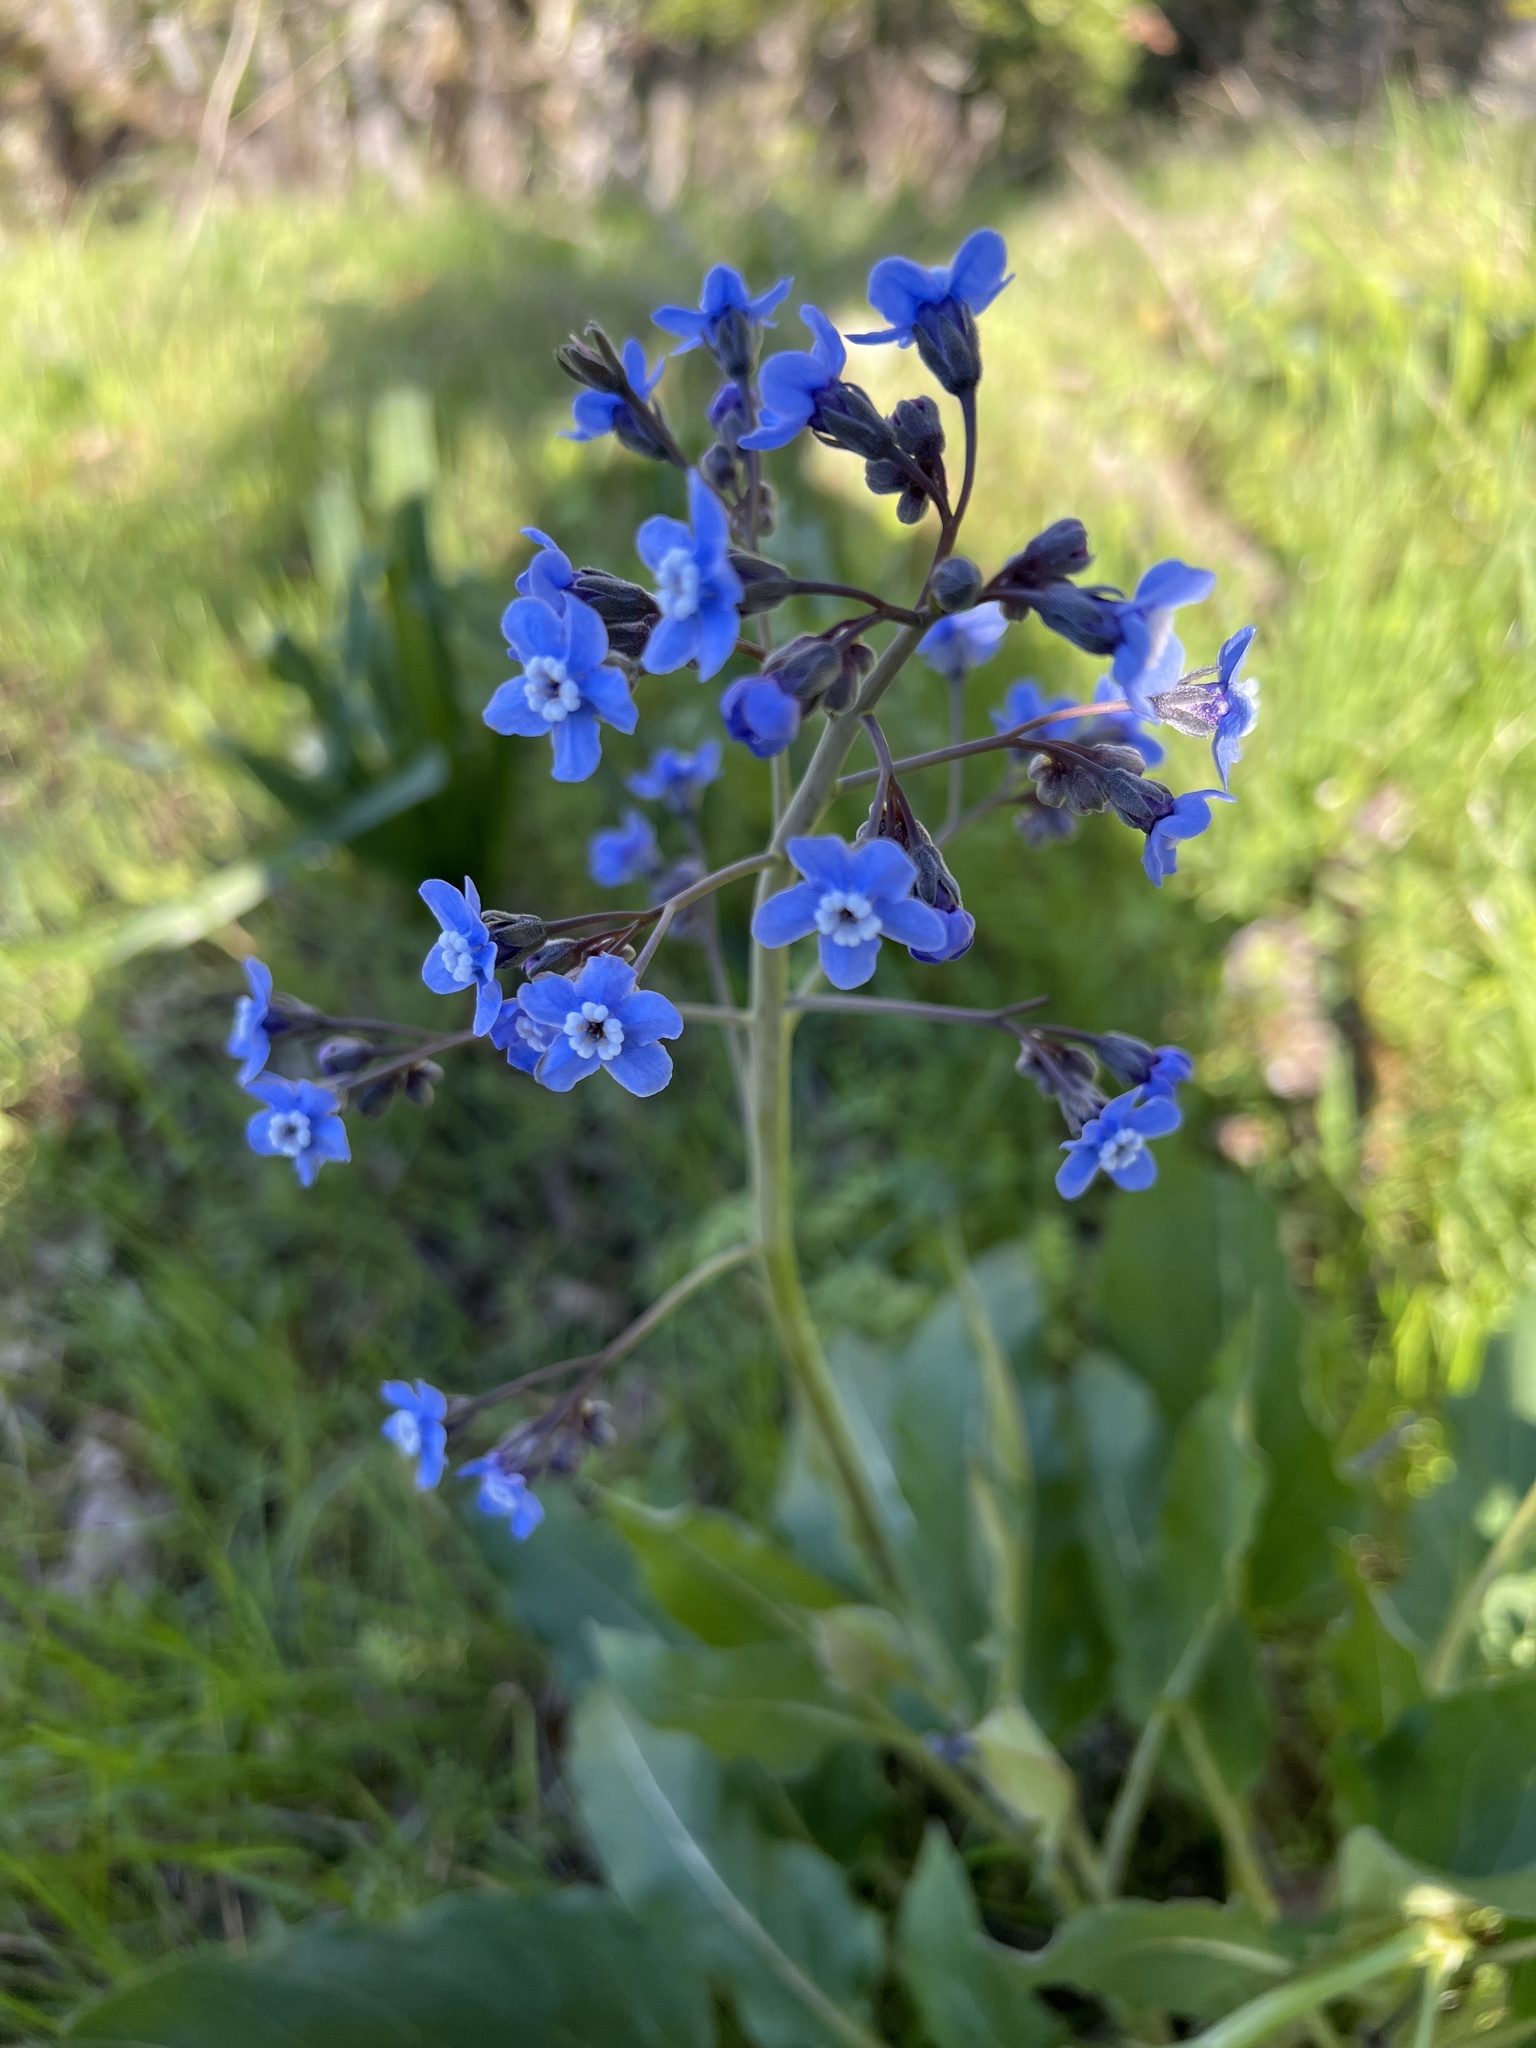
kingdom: Plantae
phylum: Tracheophyta
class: Magnoliopsida
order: Boraginales
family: Boraginaceae
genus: Adelinia
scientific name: Adelinia grande
